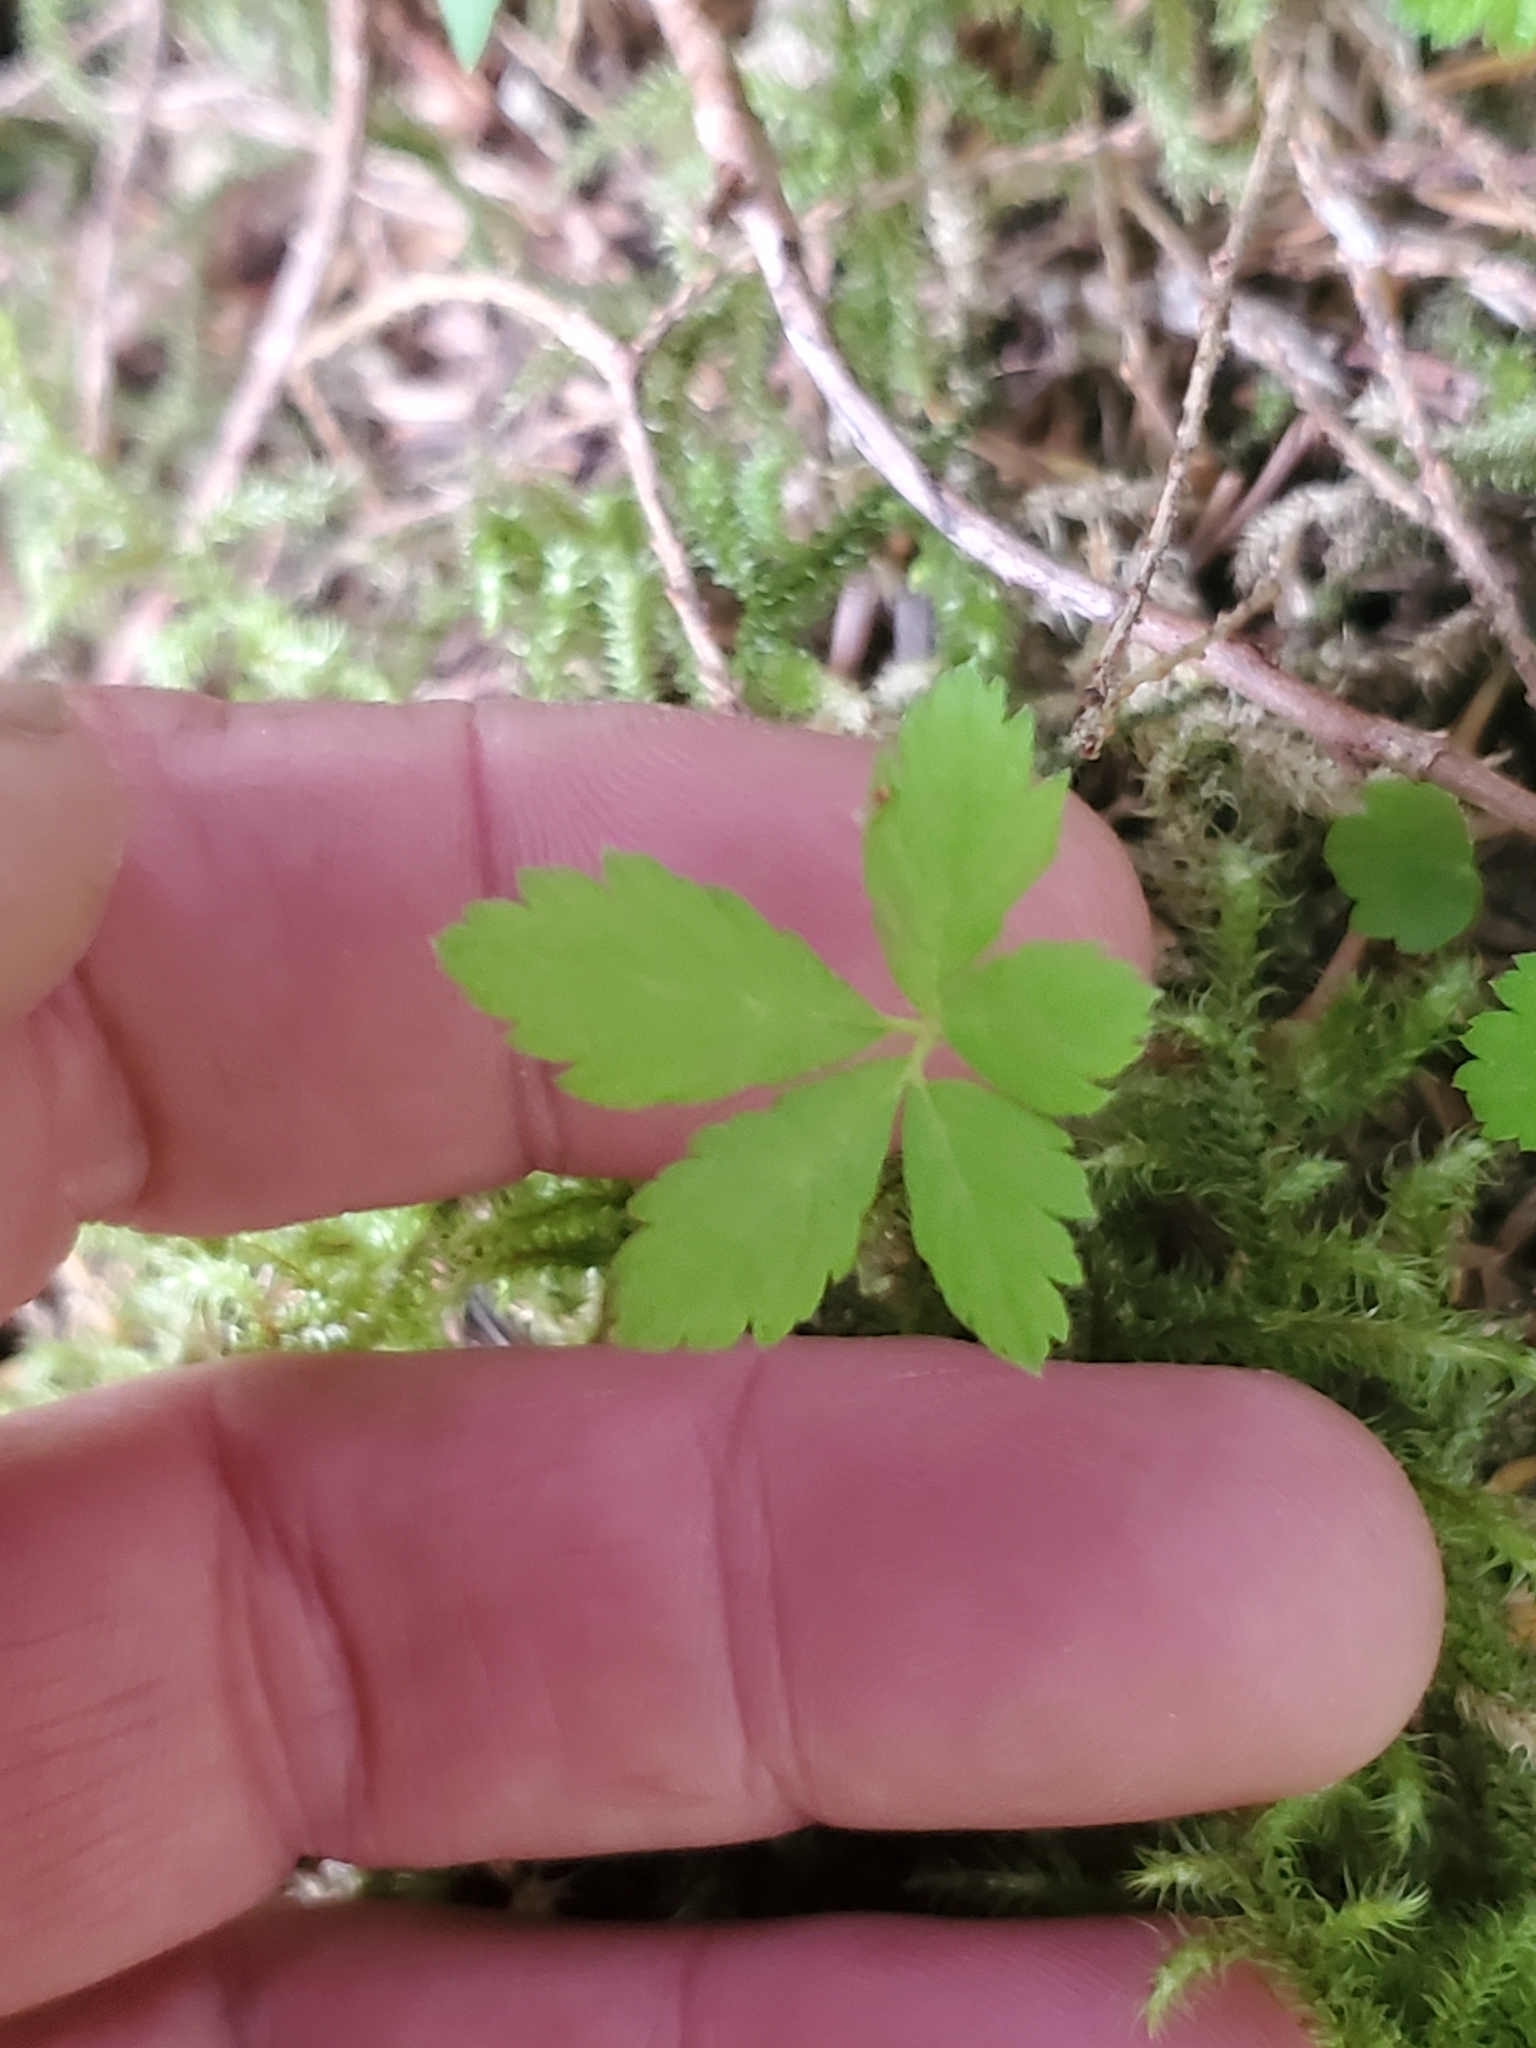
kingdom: Plantae
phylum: Tracheophyta
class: Magnoliopsida
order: Rosales
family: Rosaceae
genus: Rubus
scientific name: Rubus pedatus
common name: Creeping raspberry
